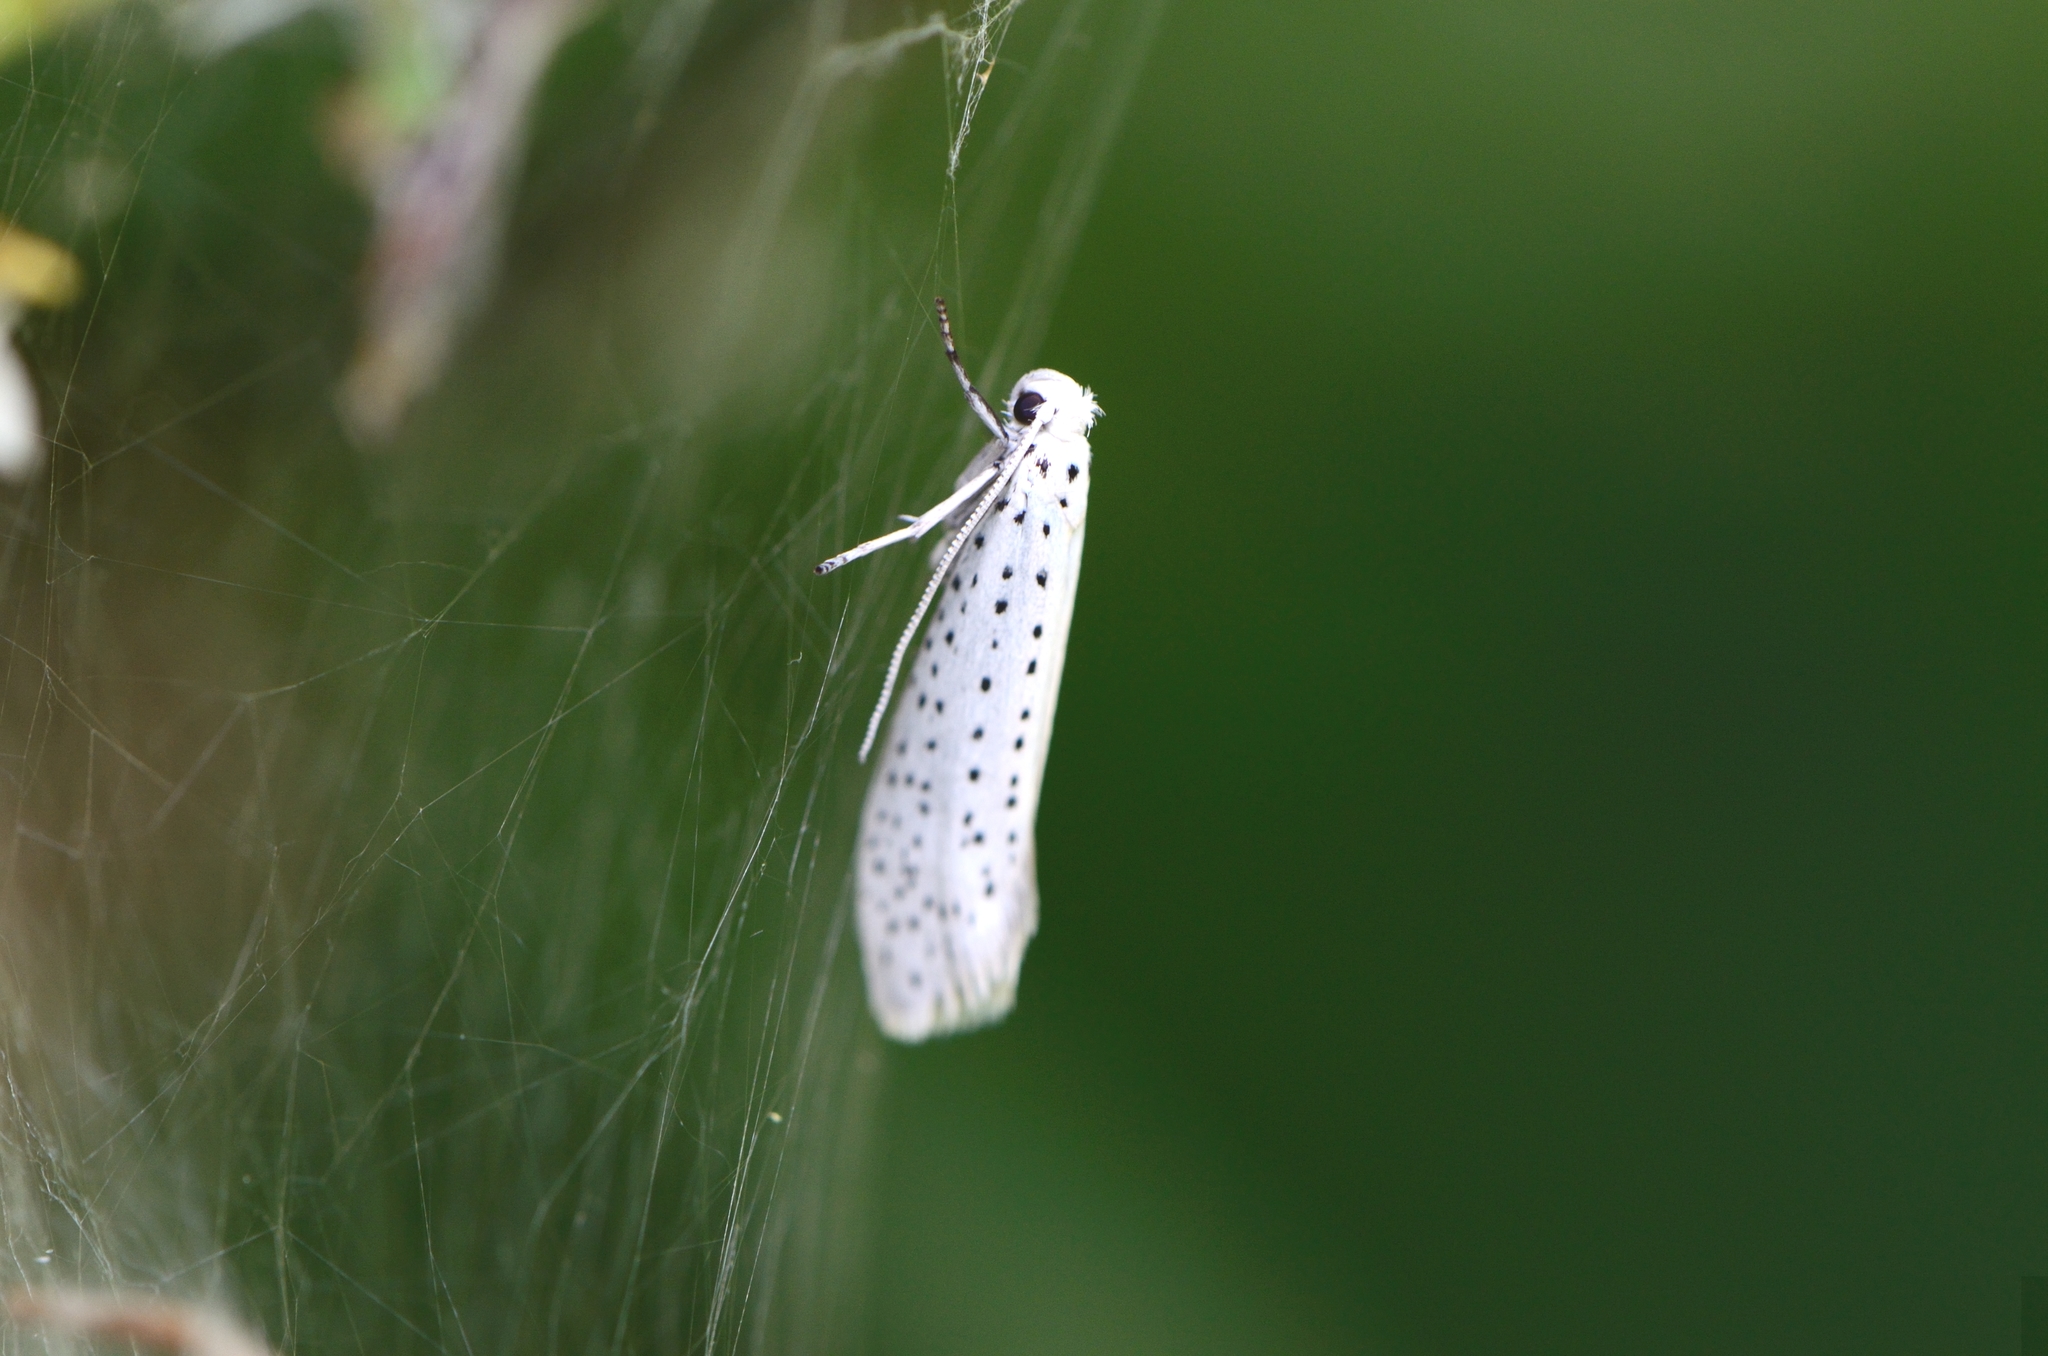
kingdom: Animalia
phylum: Arthropoda
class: Insecta
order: Lepidoptera
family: Yponomeutidae
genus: Yponomeuta
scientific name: Yponomeuta evonymella
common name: Bird-cherry ermine
